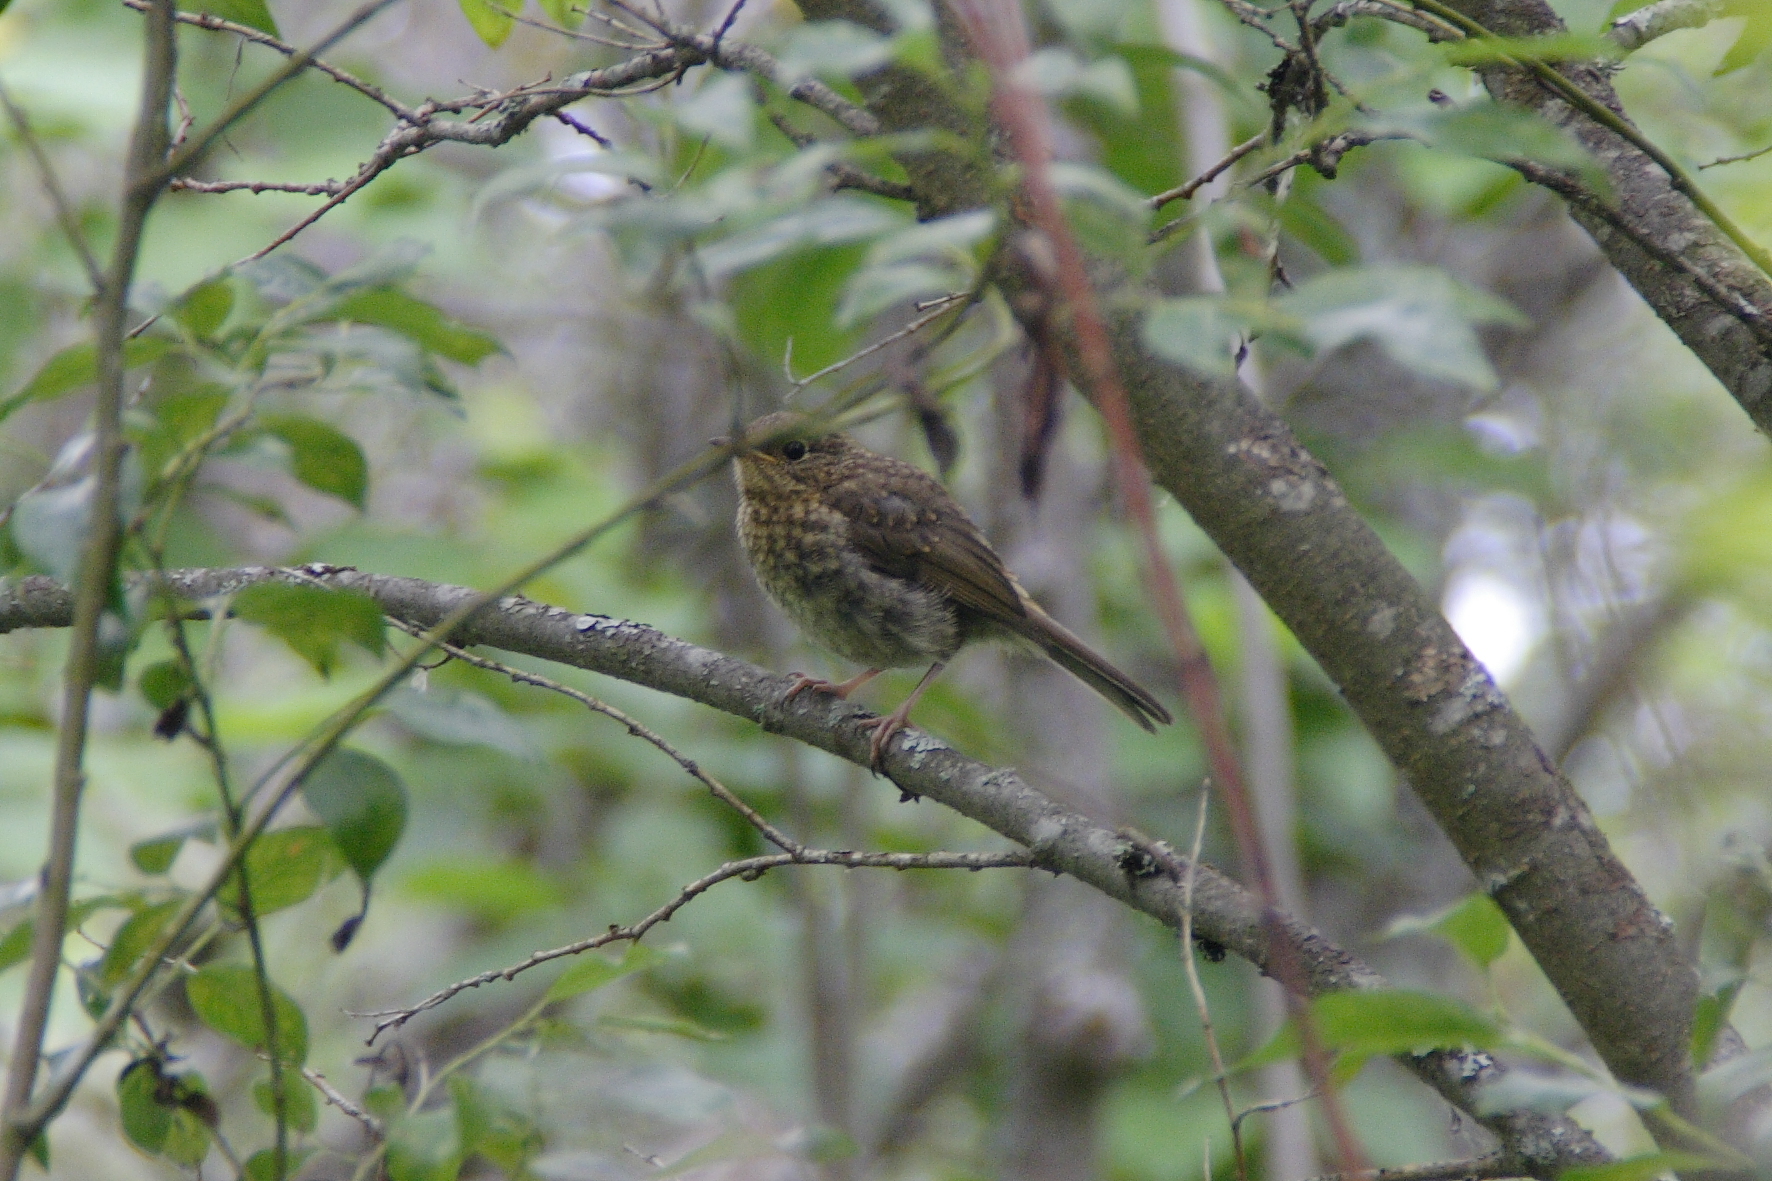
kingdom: Animalia
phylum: Chordata
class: Aves
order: Passeriformes
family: Muscicapidae
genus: Erithacus
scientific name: Erithacus rubecula
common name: European robin
